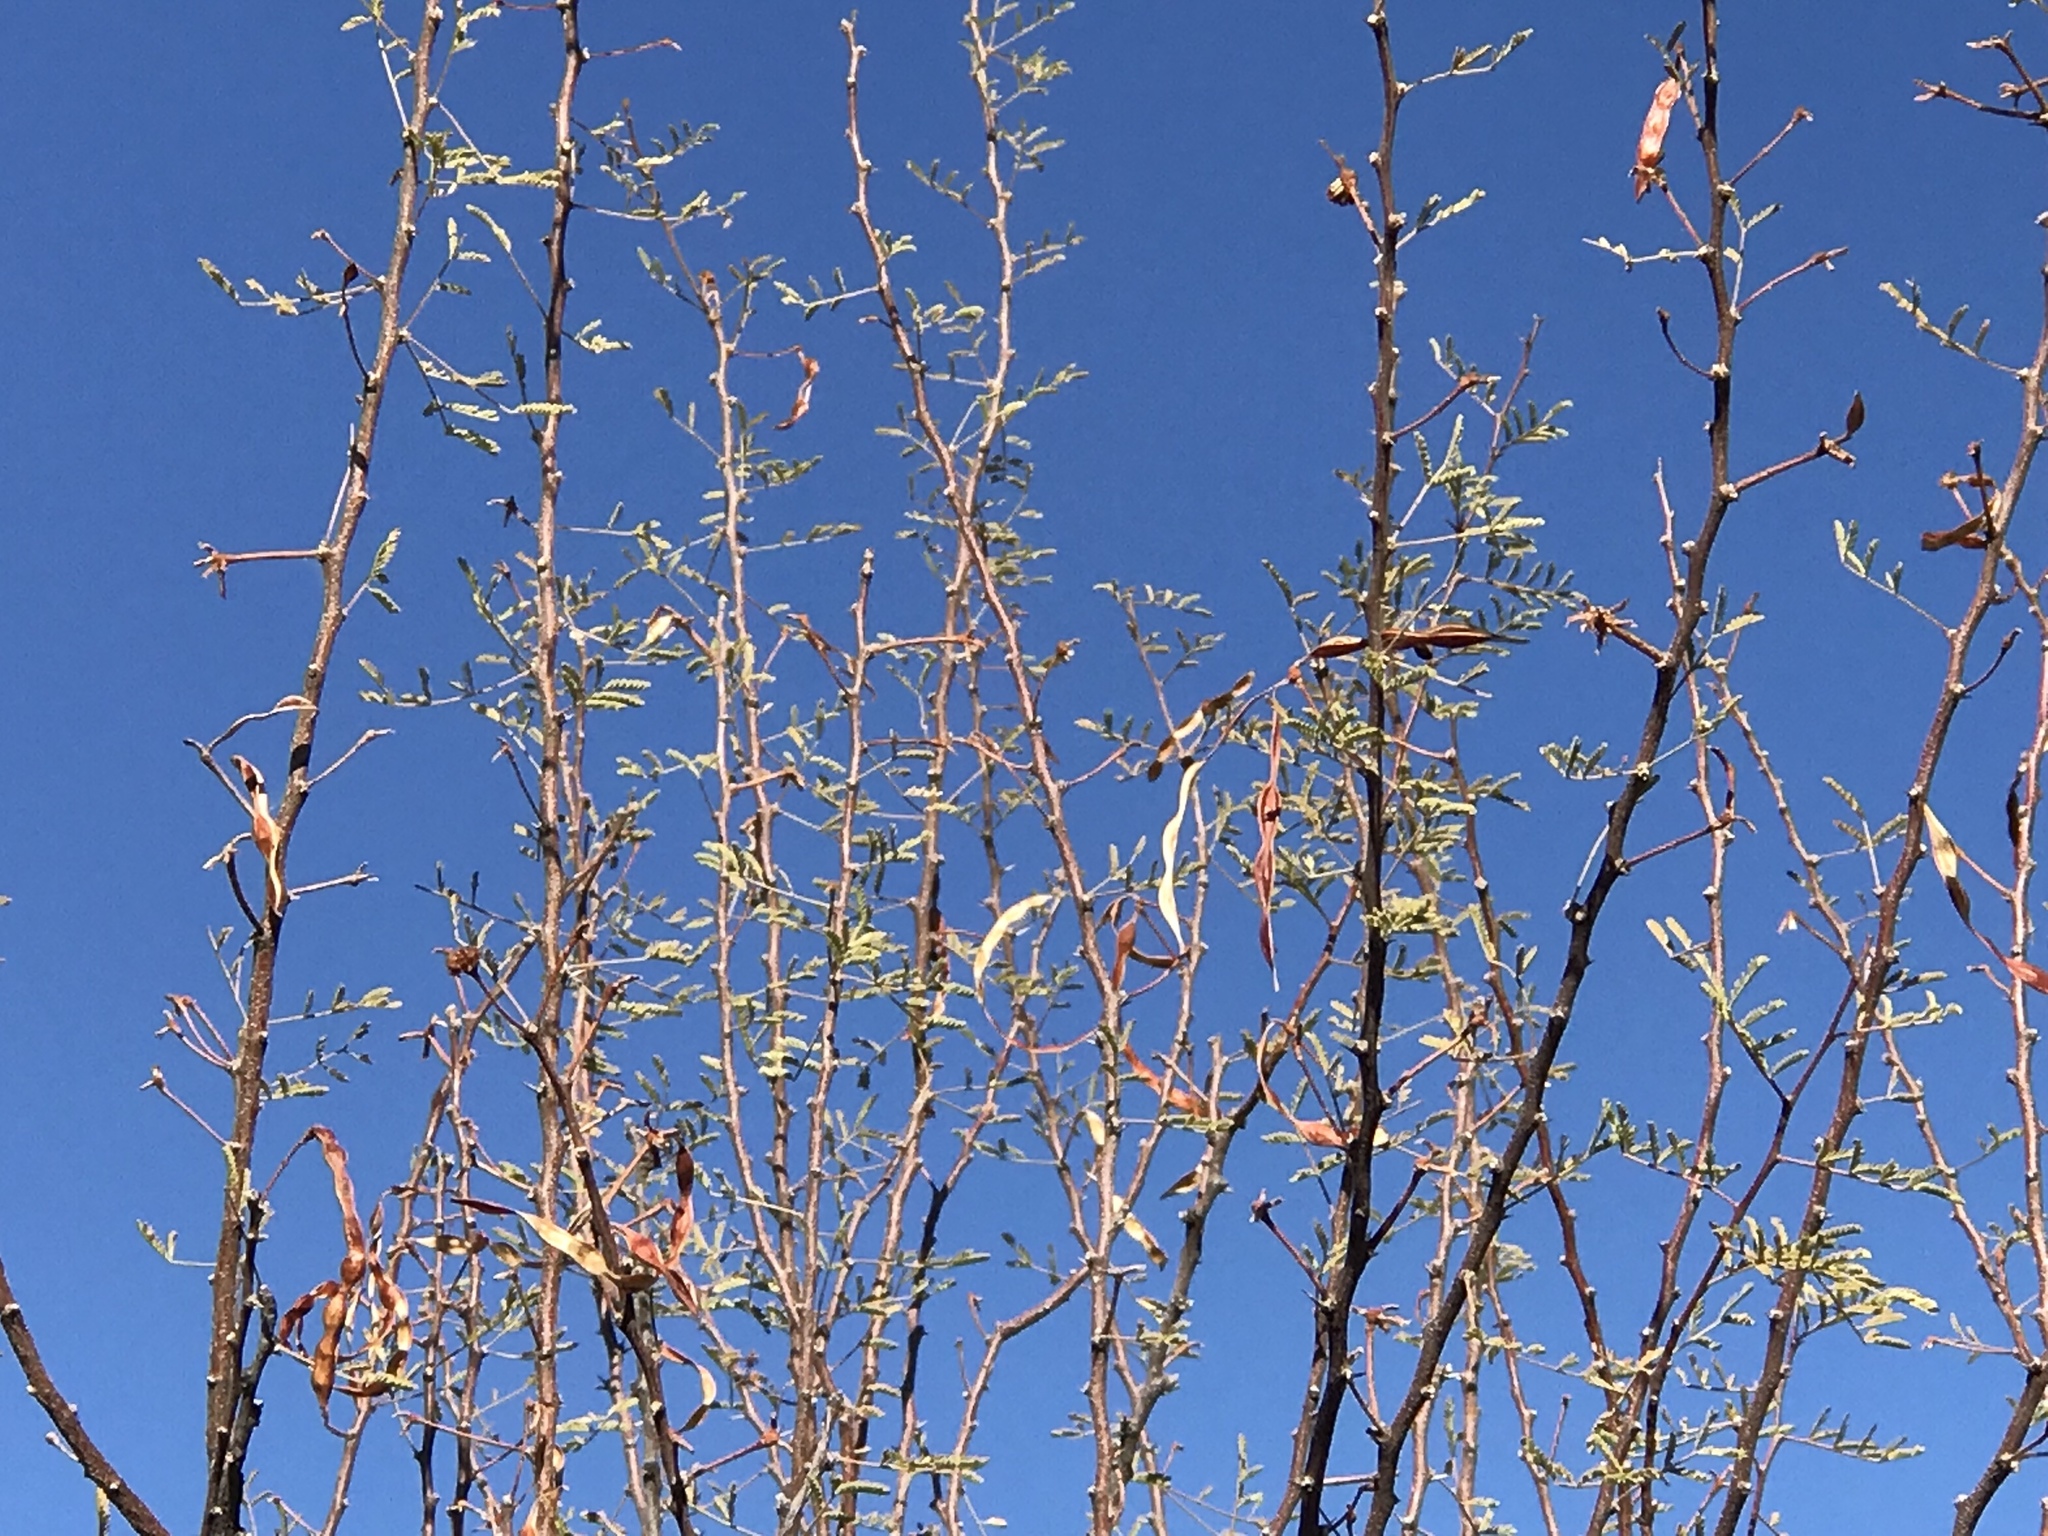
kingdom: Plantae
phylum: Tracheophyta
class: Magnoliopsida
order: Fabales
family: Fabaceae
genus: Vachellia
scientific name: Vachellia constricta
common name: Mescat acacia
